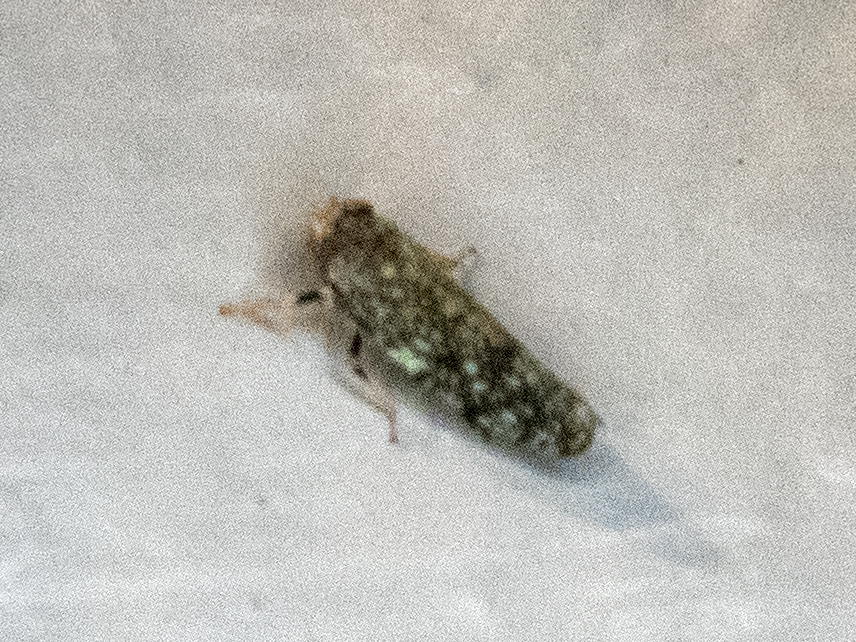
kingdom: Animalia
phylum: Arthropoda
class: Insecta
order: Hemiptera
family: Cicadellidae
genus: Orientus
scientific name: Orientus ishidae
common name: Japanese leafhopper
